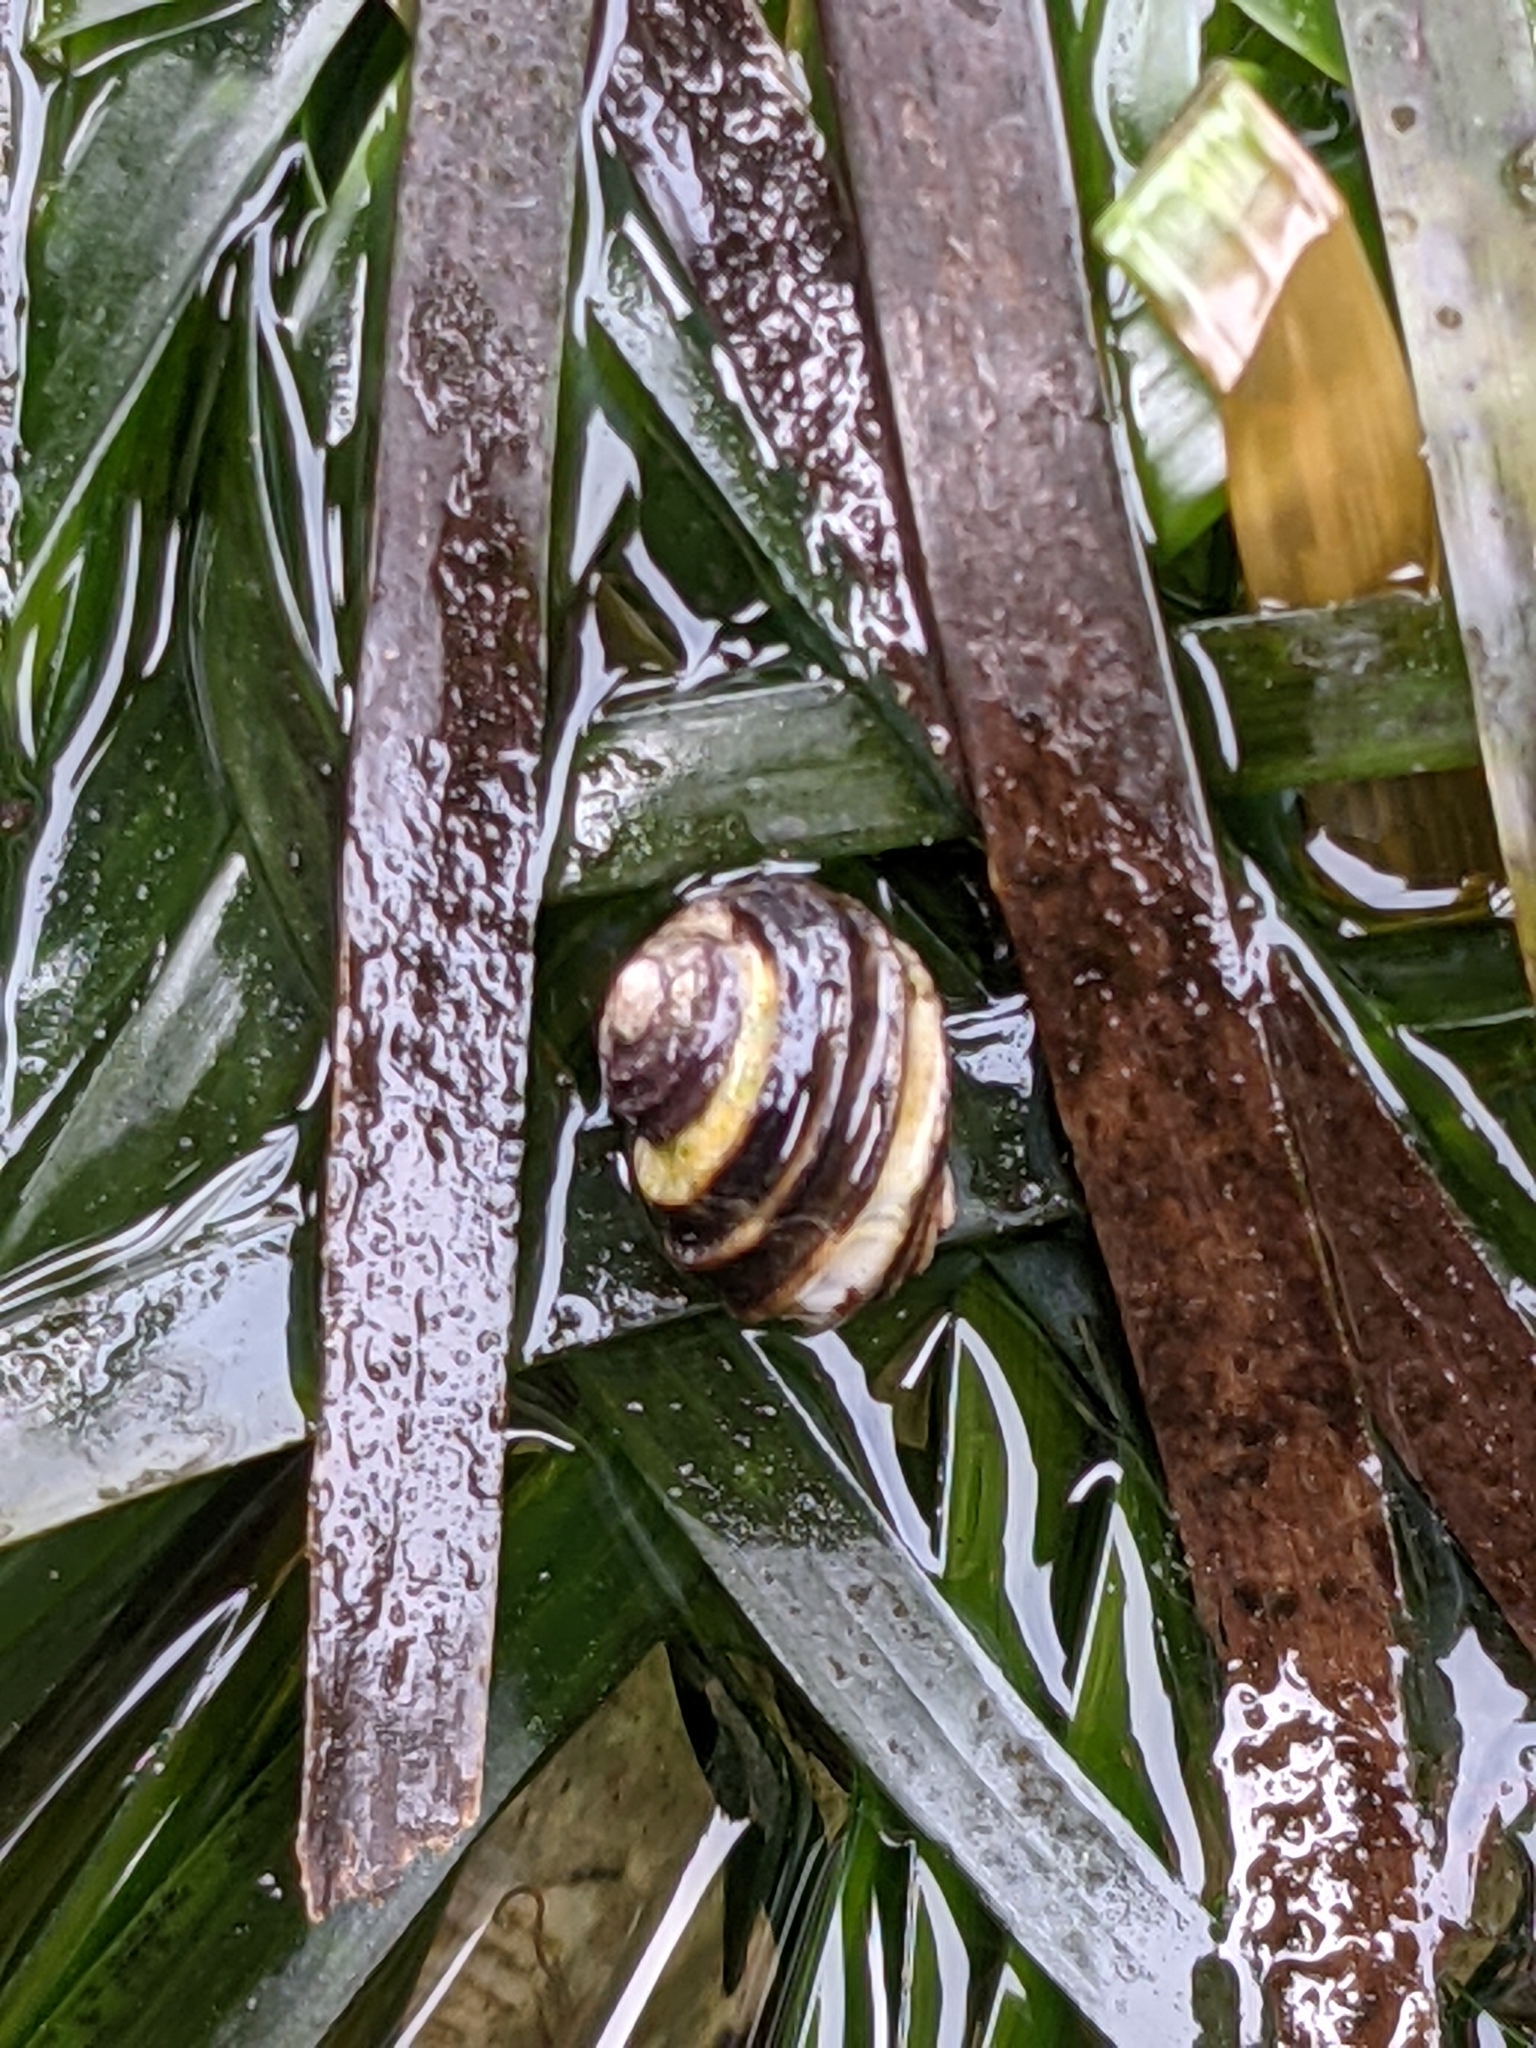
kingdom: Animalia
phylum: Mollusca
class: Gastropoda
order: Littorinimorpha
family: Littorinidae
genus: Littorina
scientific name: Littorina sitkana
